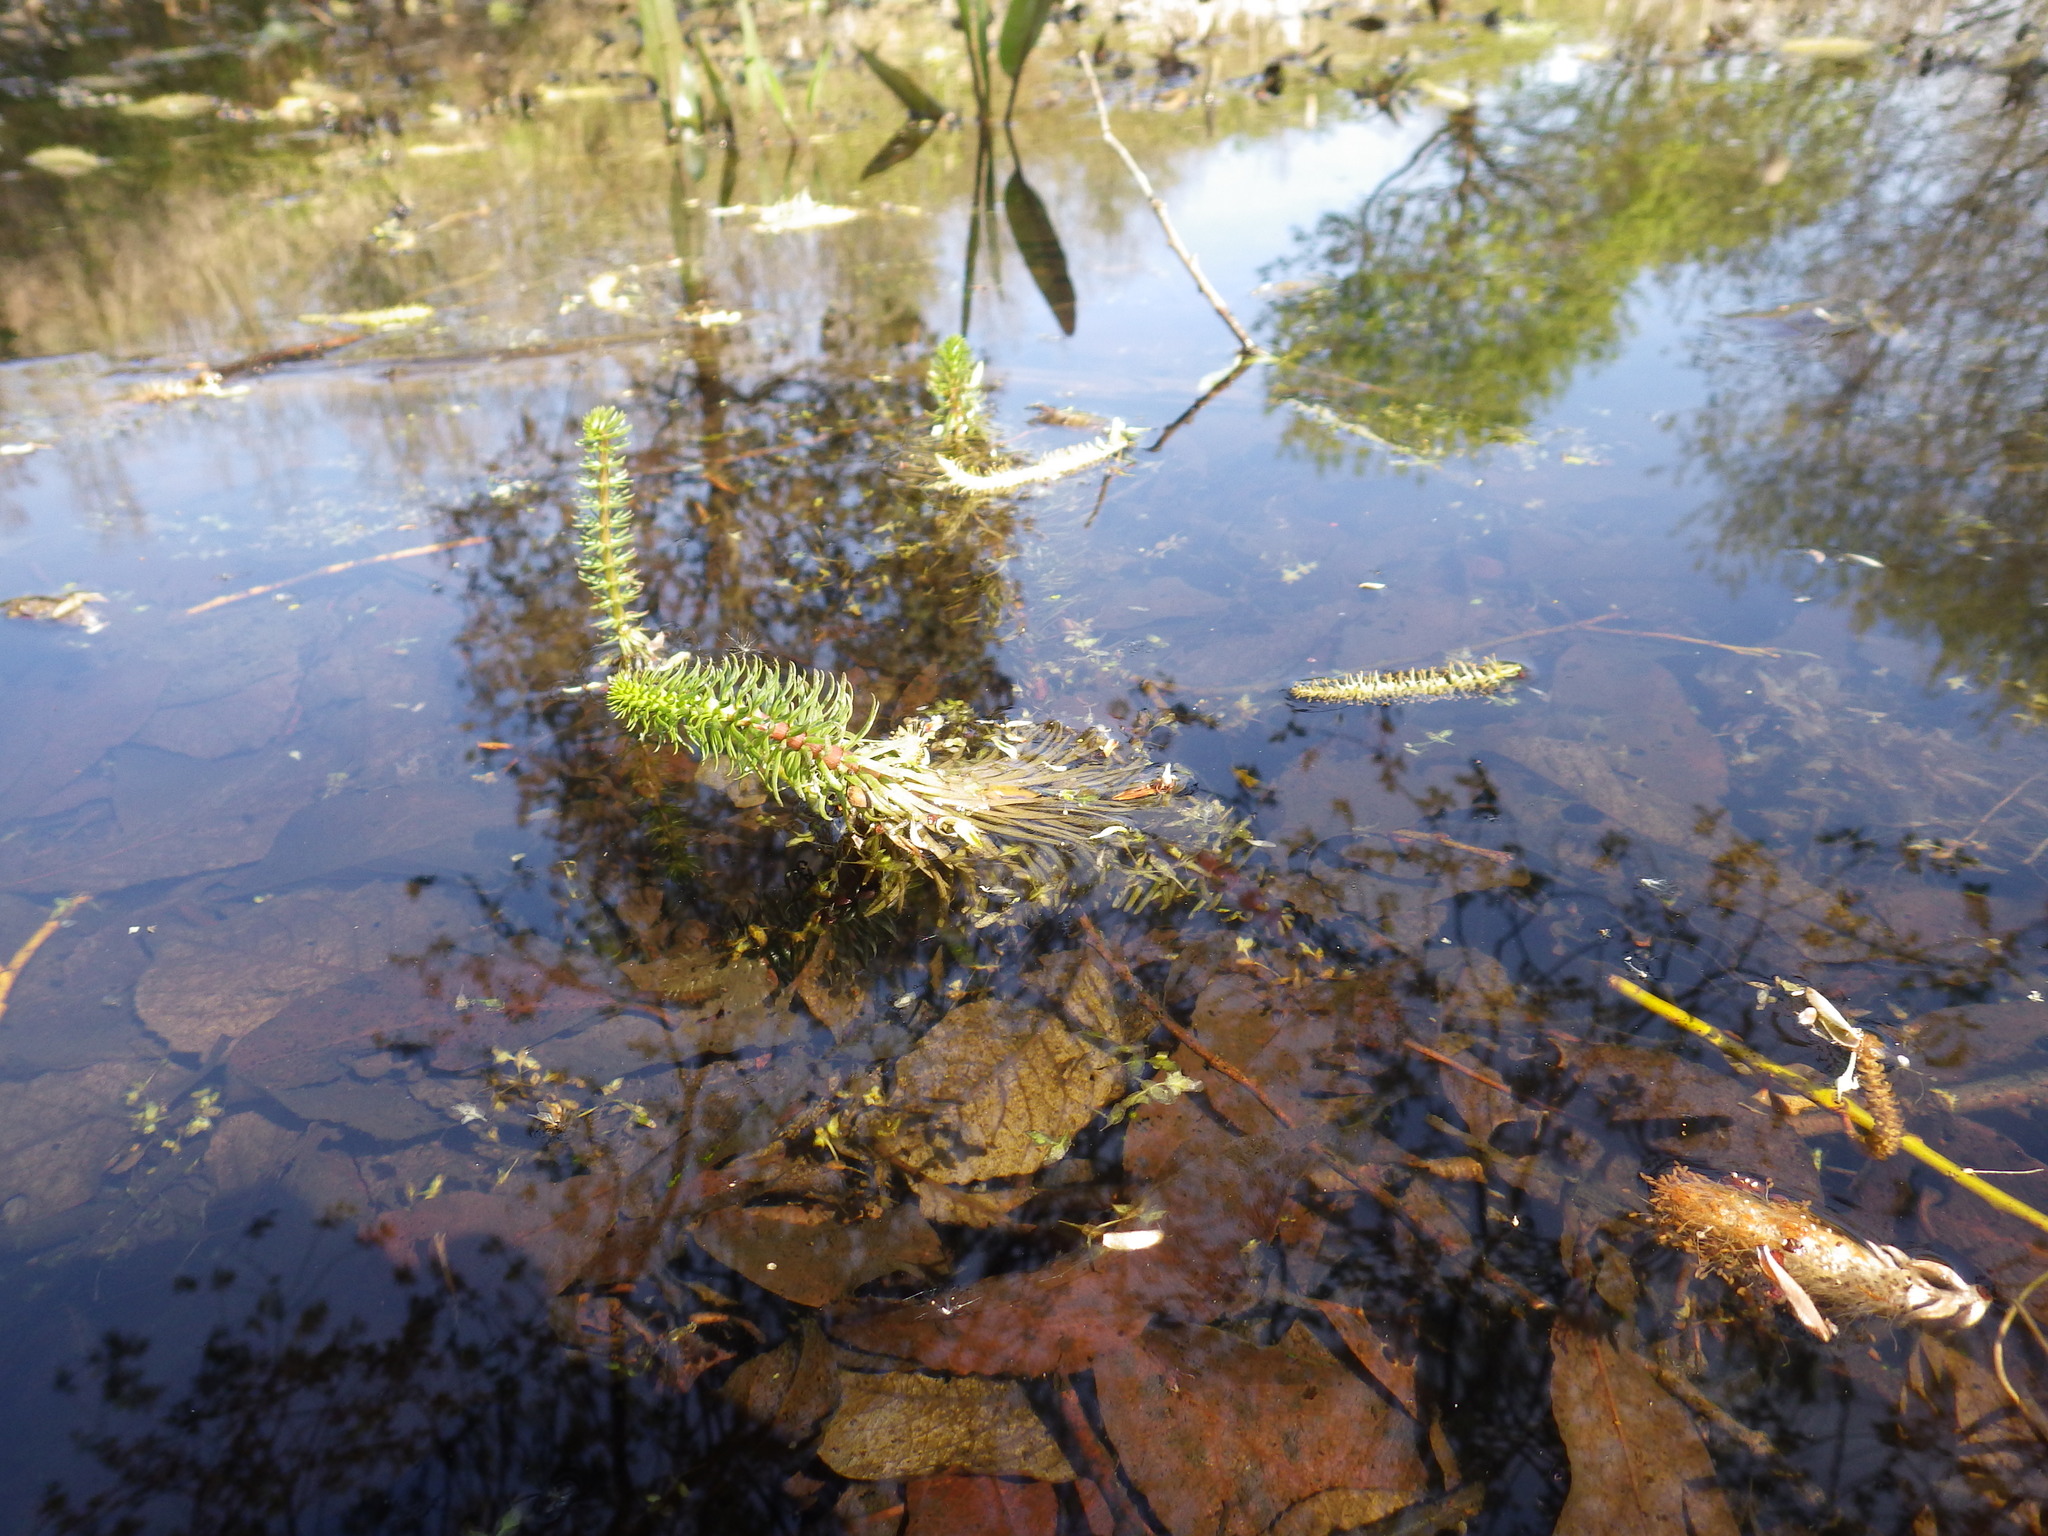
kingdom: Plantae
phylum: Tracheophyta
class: Magnoliopsida
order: Lamiales
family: Plantaginaceae
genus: Hippuris
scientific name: Hippuris vulgaris
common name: Mare's-tail
